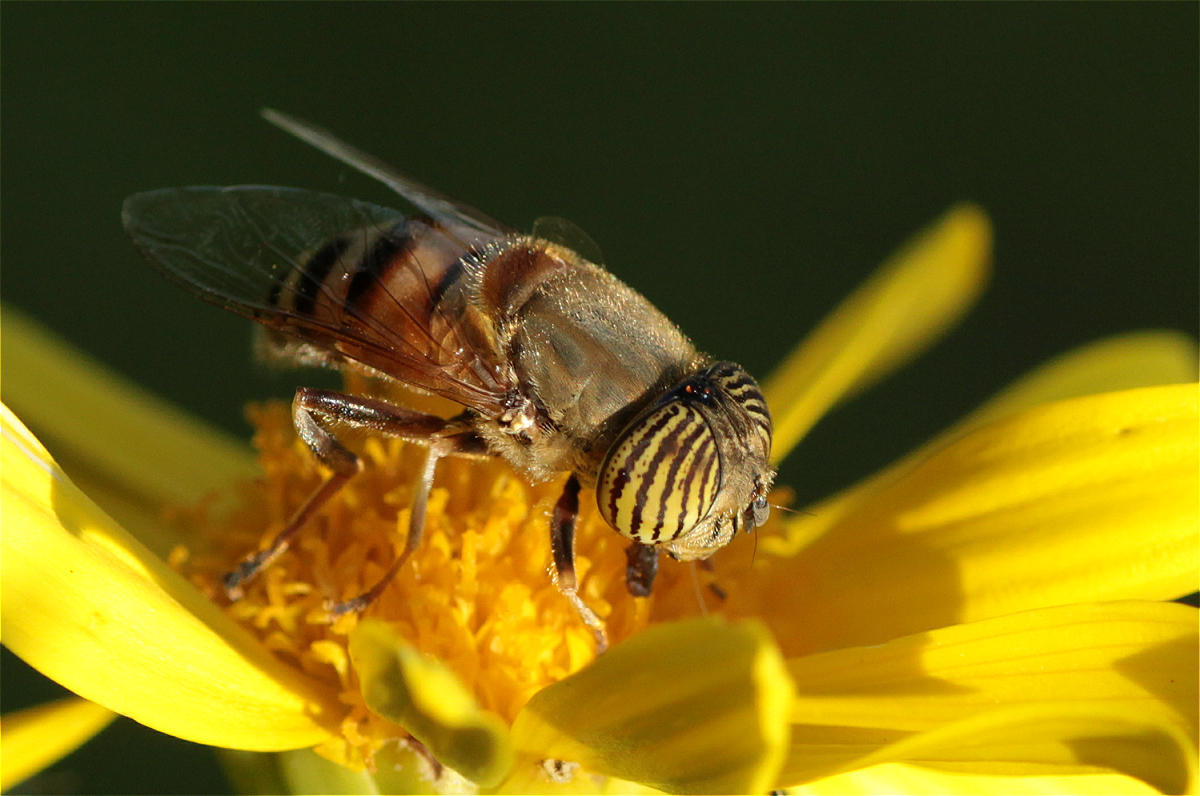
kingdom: Animalia
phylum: Arthropoda
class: Insecta
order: Diptera
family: Syrphidae
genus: Eristalinus
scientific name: Eristalinus taeniops
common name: Syrphid fly
